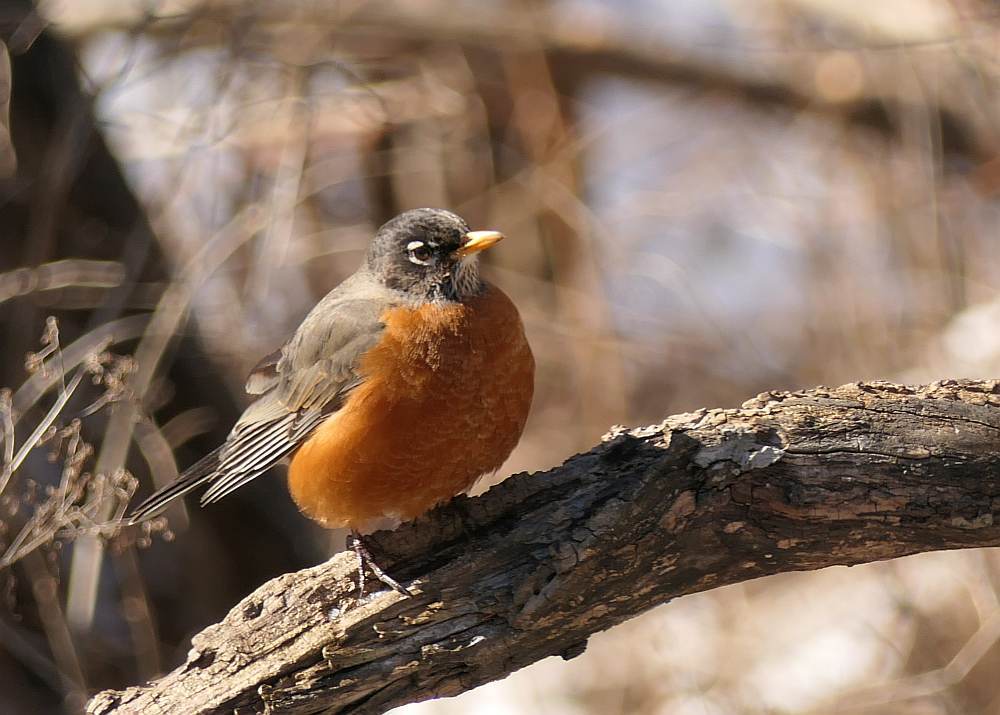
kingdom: Animalia
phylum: Chordata
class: Aves
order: Passeriformes
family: Turdidae
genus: Turdus
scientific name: Turdus migratorius
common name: American robin
